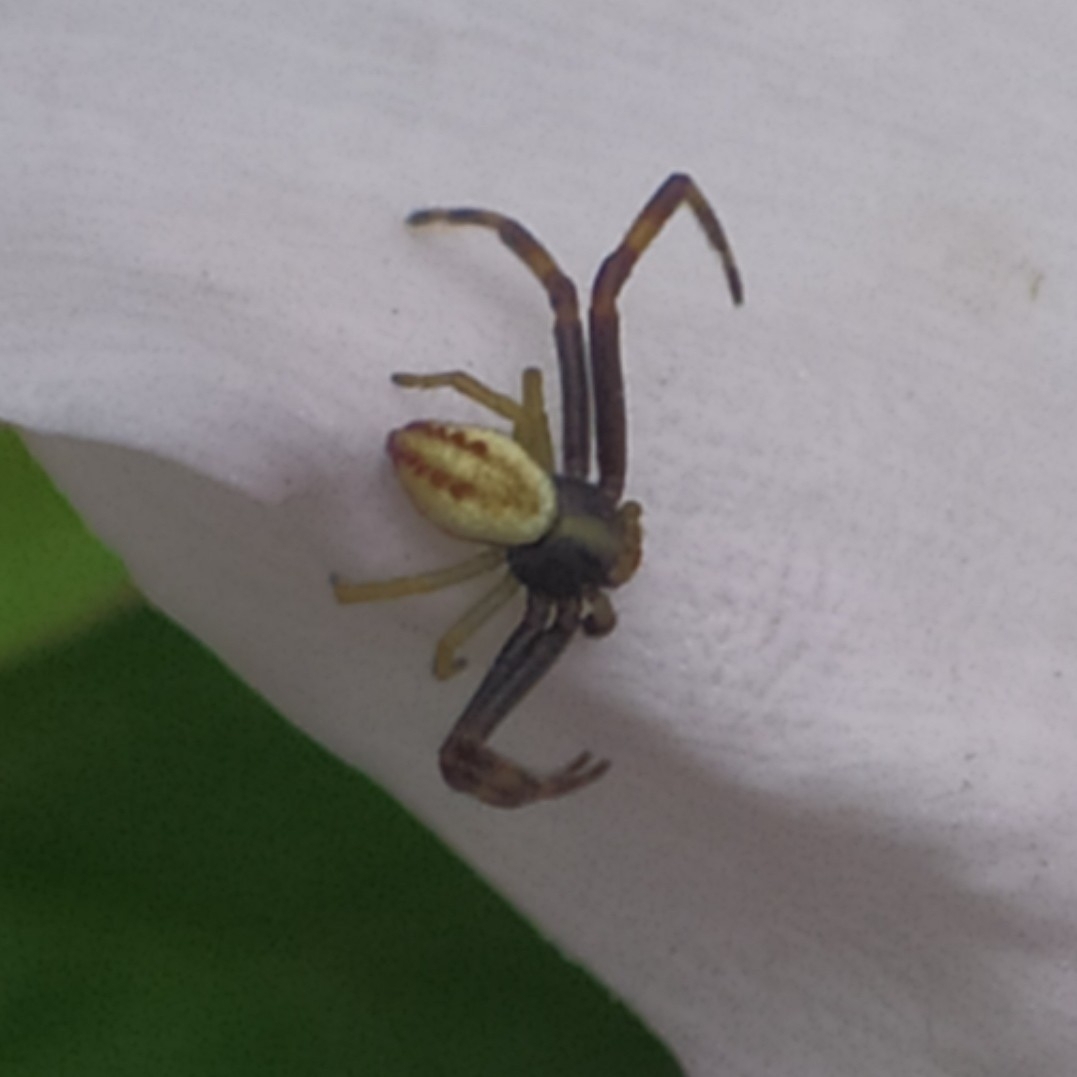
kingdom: Animalia
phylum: Arthropoda
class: Arachnida
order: Araneae
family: Thomisidae
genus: Misumena
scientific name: Misumena vatia
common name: Goldenrod crab spider
